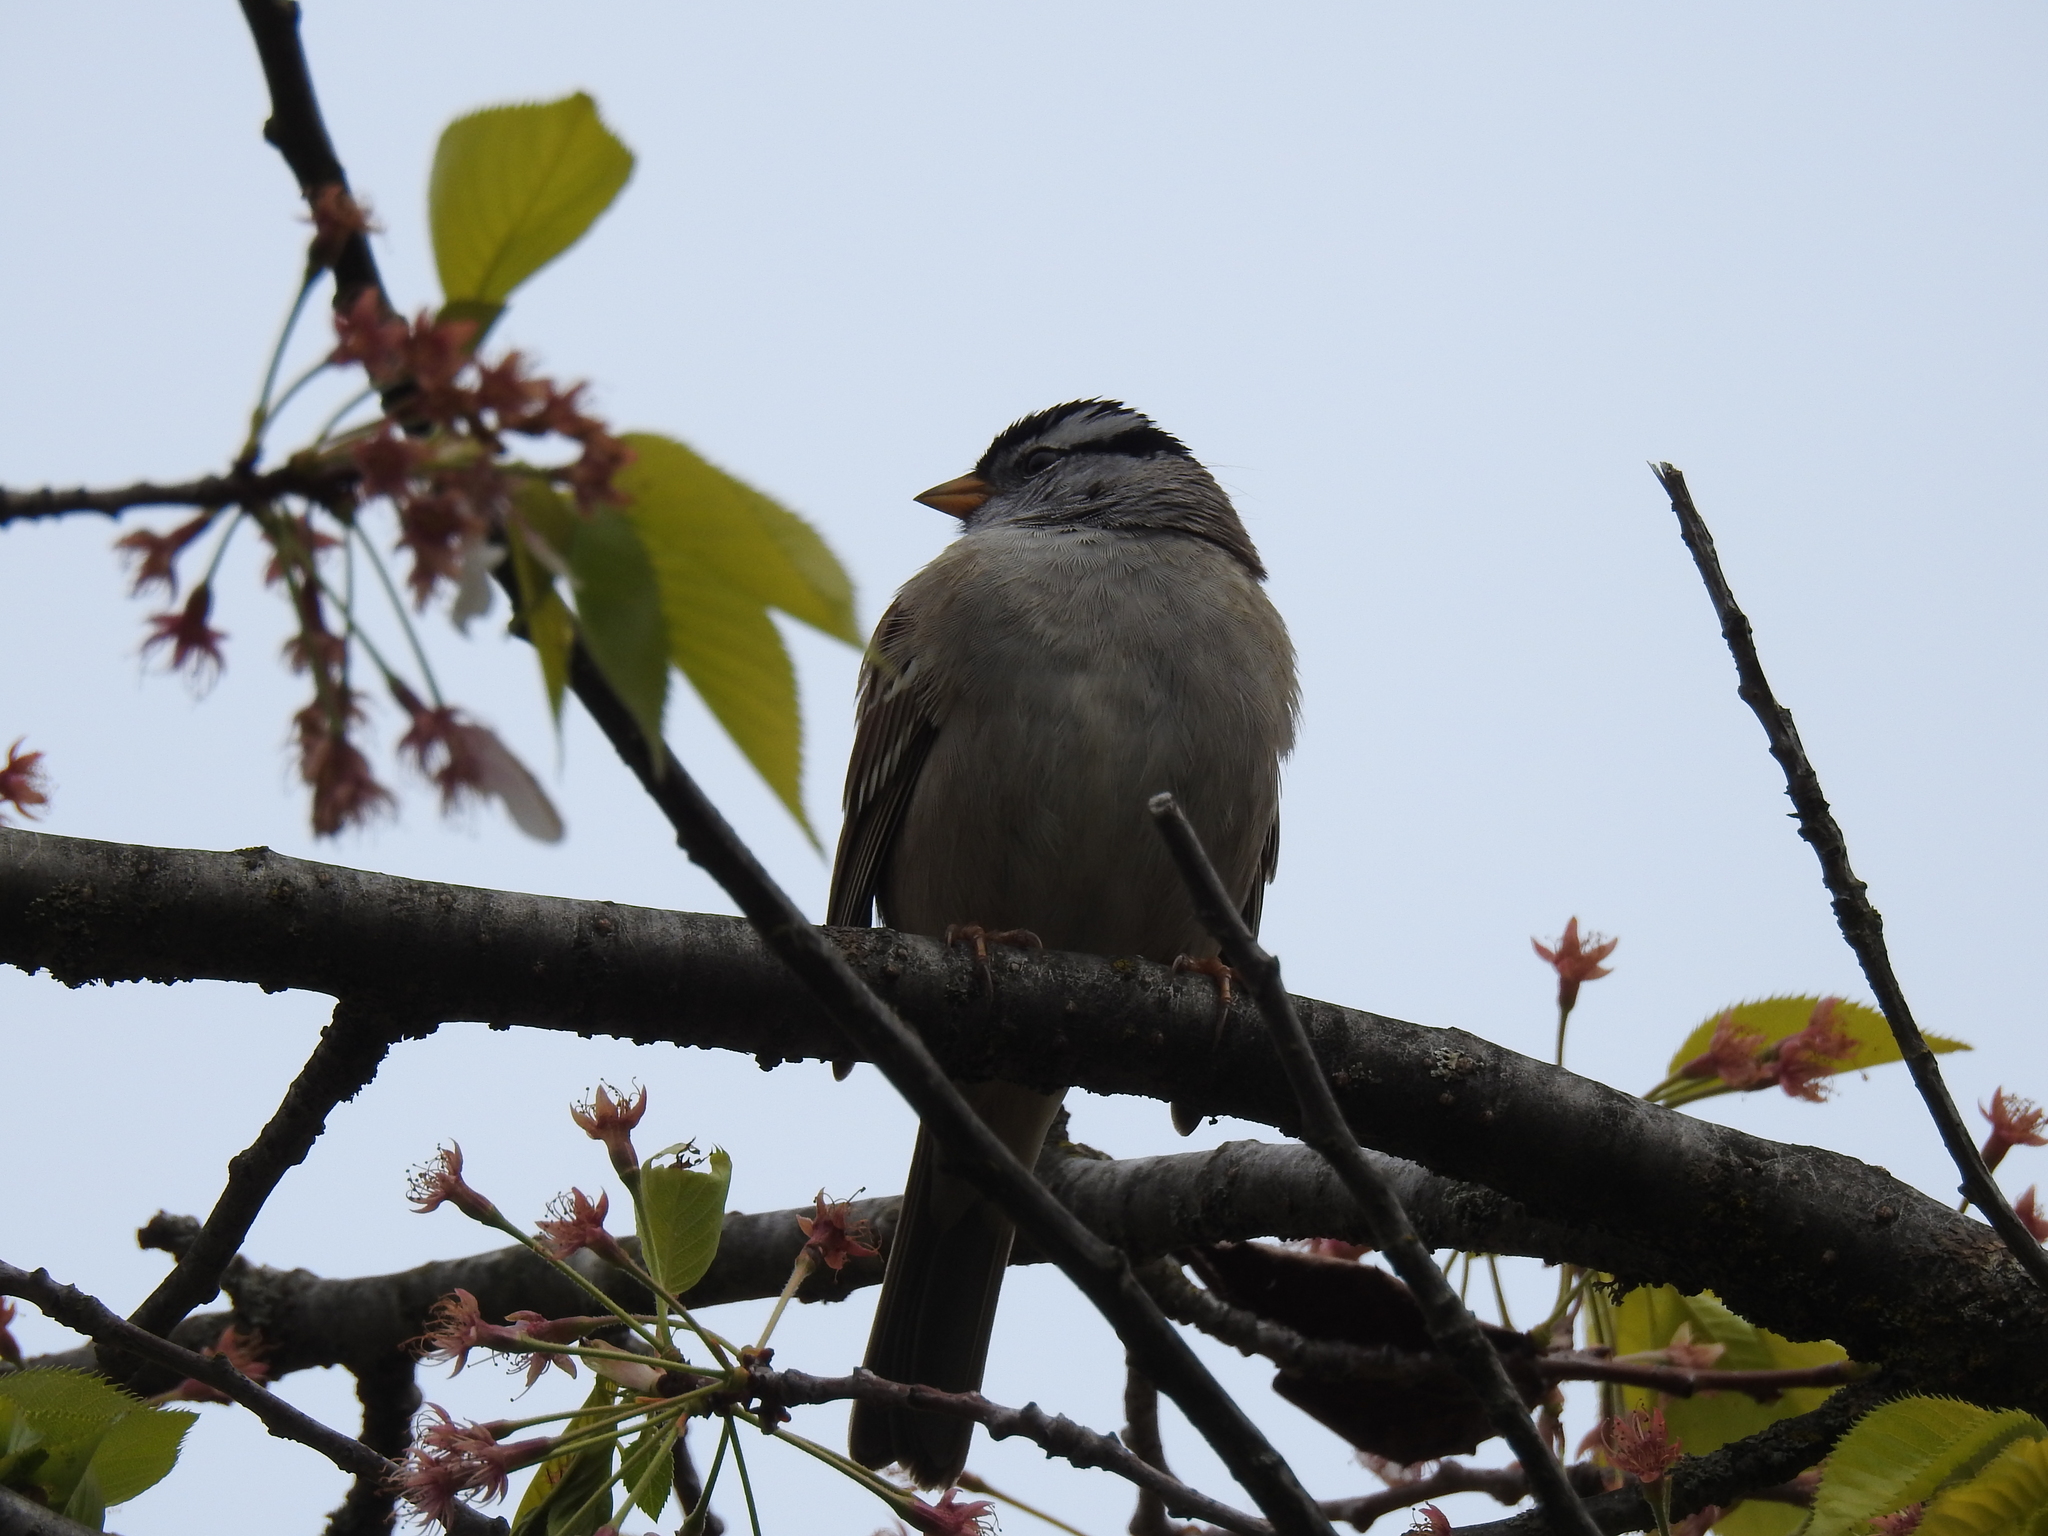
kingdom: Animalia
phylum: Chordata
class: Aves
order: Passeriformes
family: Passerellidae
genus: Zonotrichia
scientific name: Zonotrichia leucophrys
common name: White-crowned sparrow
